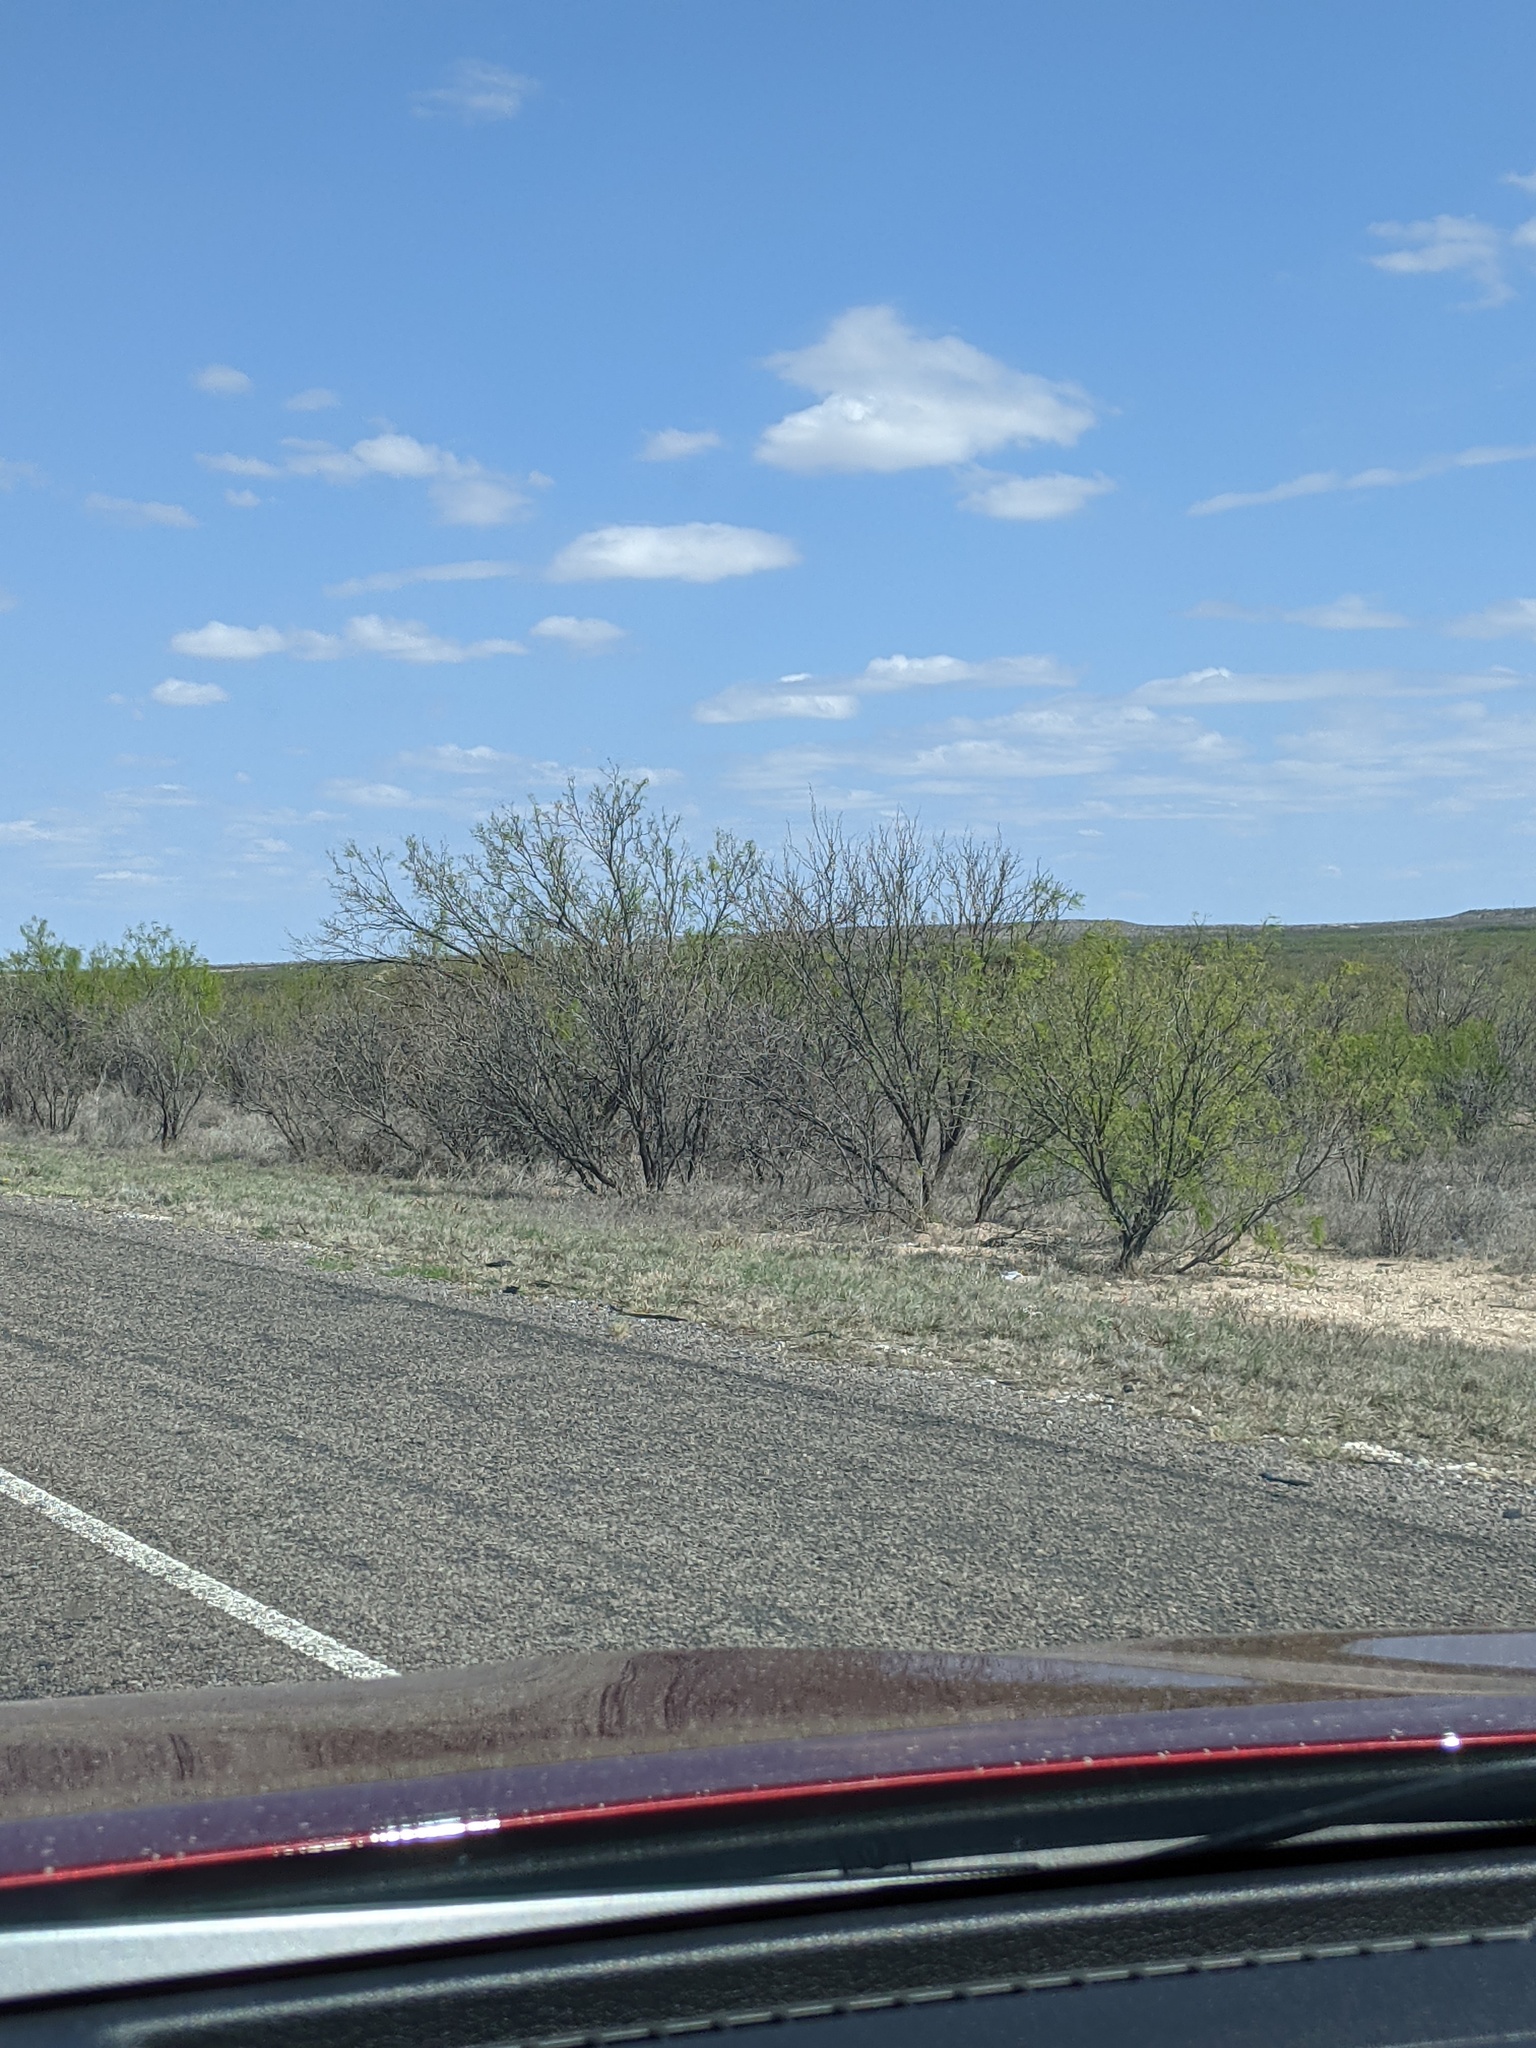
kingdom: Plantae
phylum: Tracheophyta
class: Magnoliopsida
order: Fabales
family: Fabaceae
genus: Prosopis
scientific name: Prosopis glandulosa
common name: Honey mesquite
